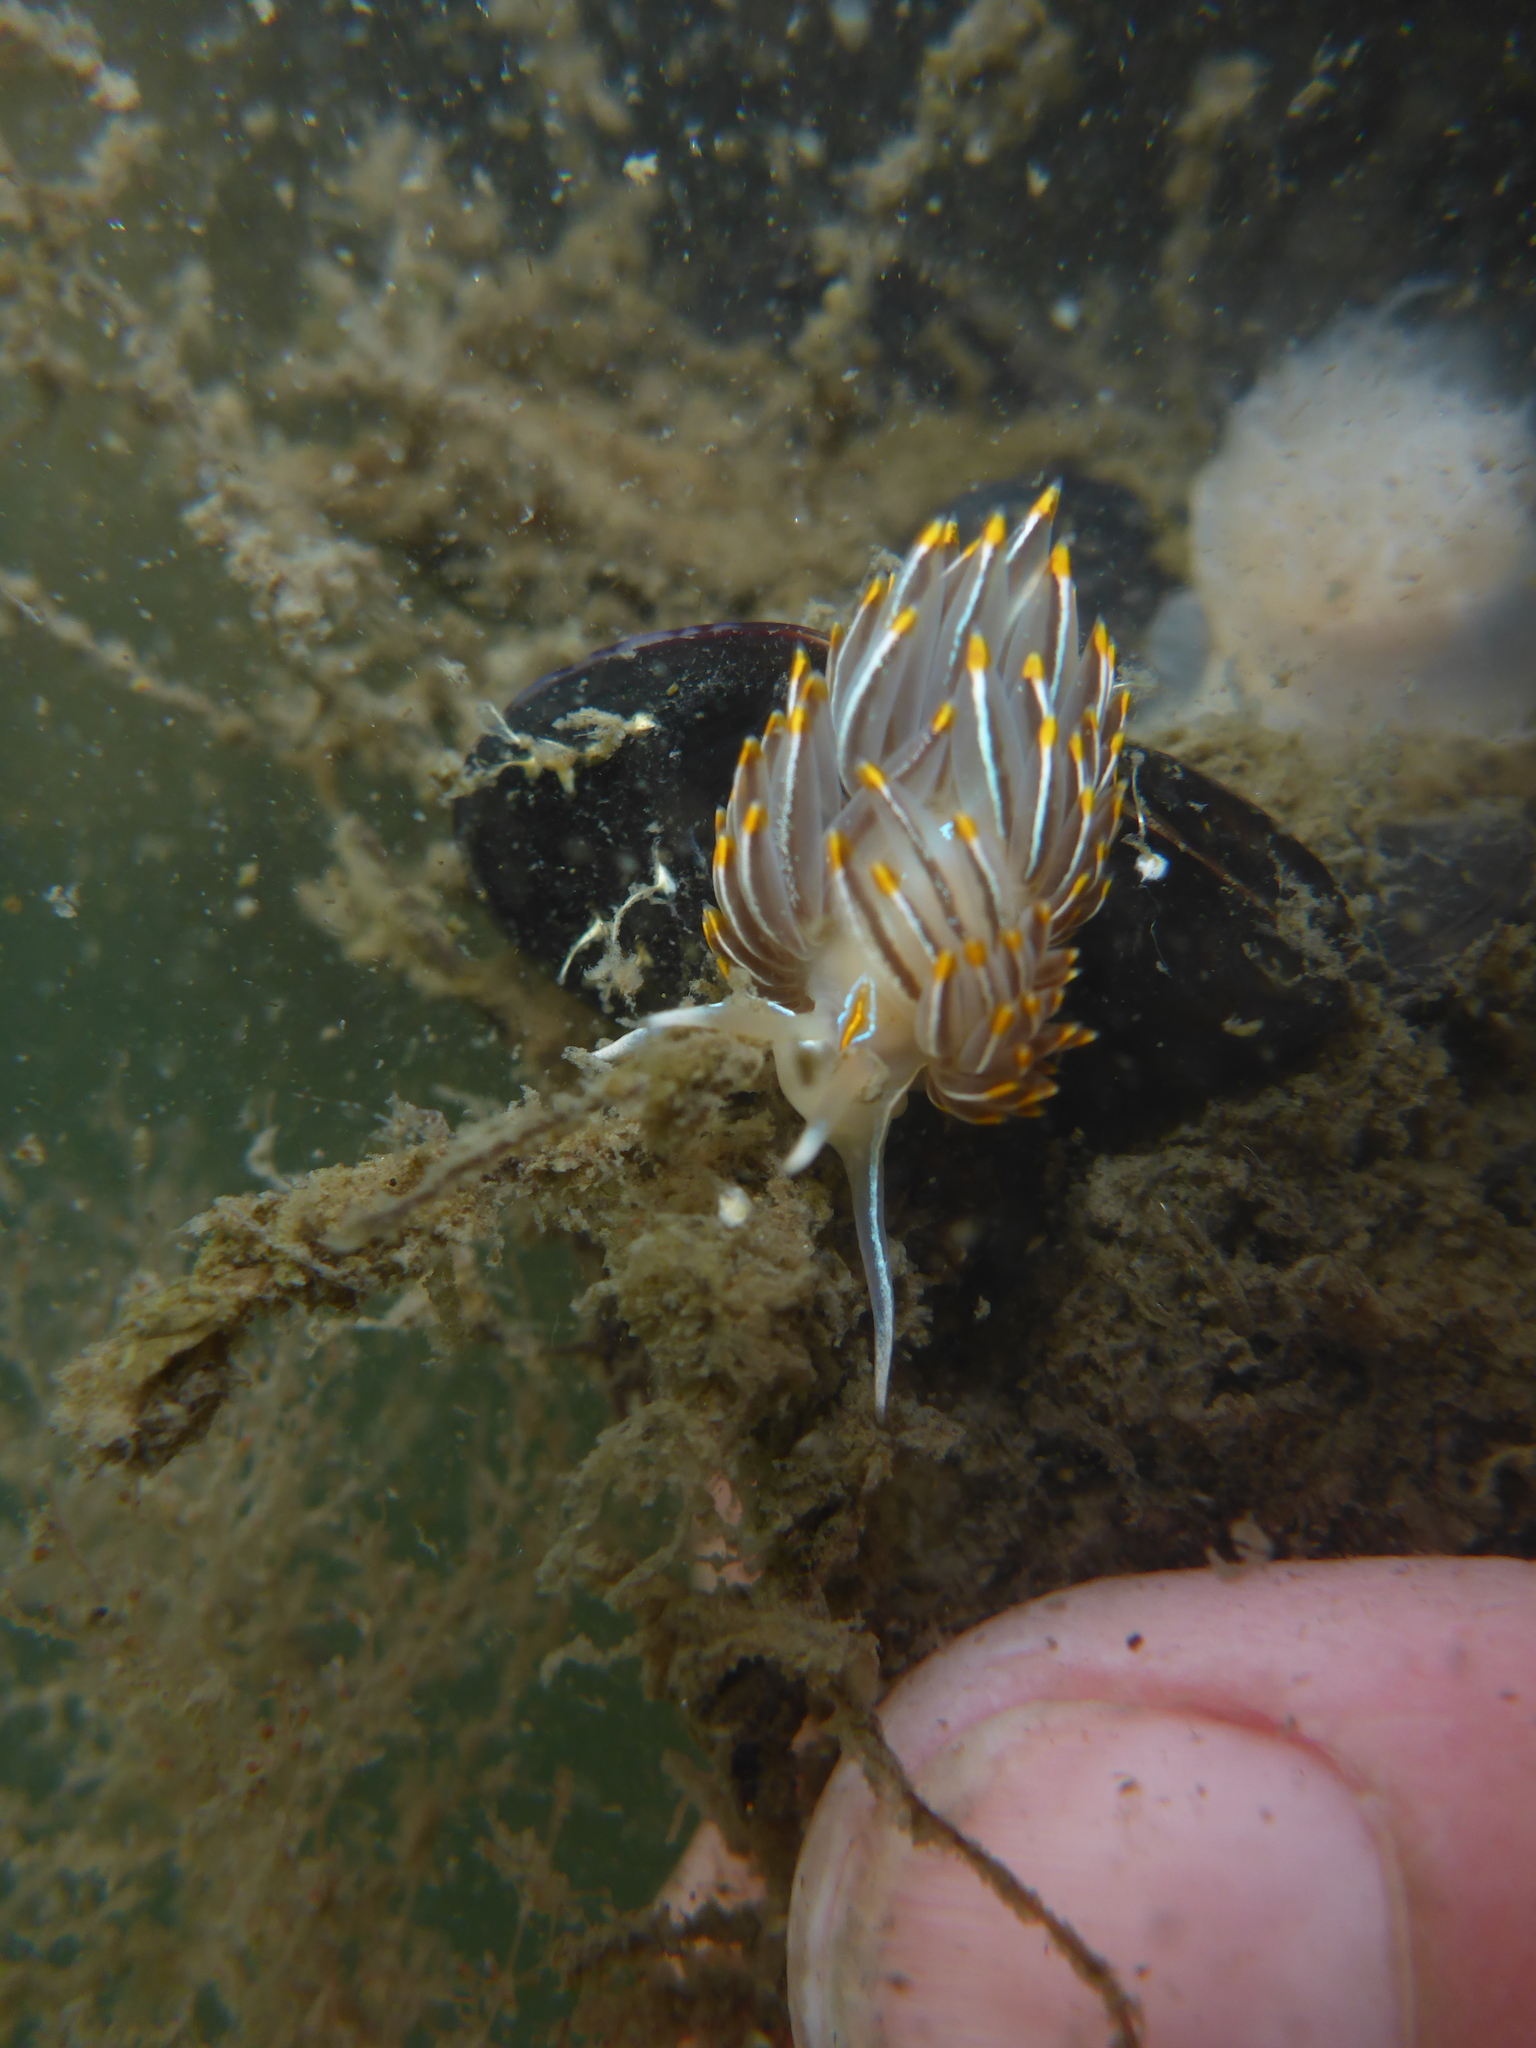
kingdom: Animalia
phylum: Mollusca
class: Gastropoda
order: Nudibranchia
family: Myrrhinidae
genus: Hermissenda
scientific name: Hermissenda crassicornis
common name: Hermissenda
